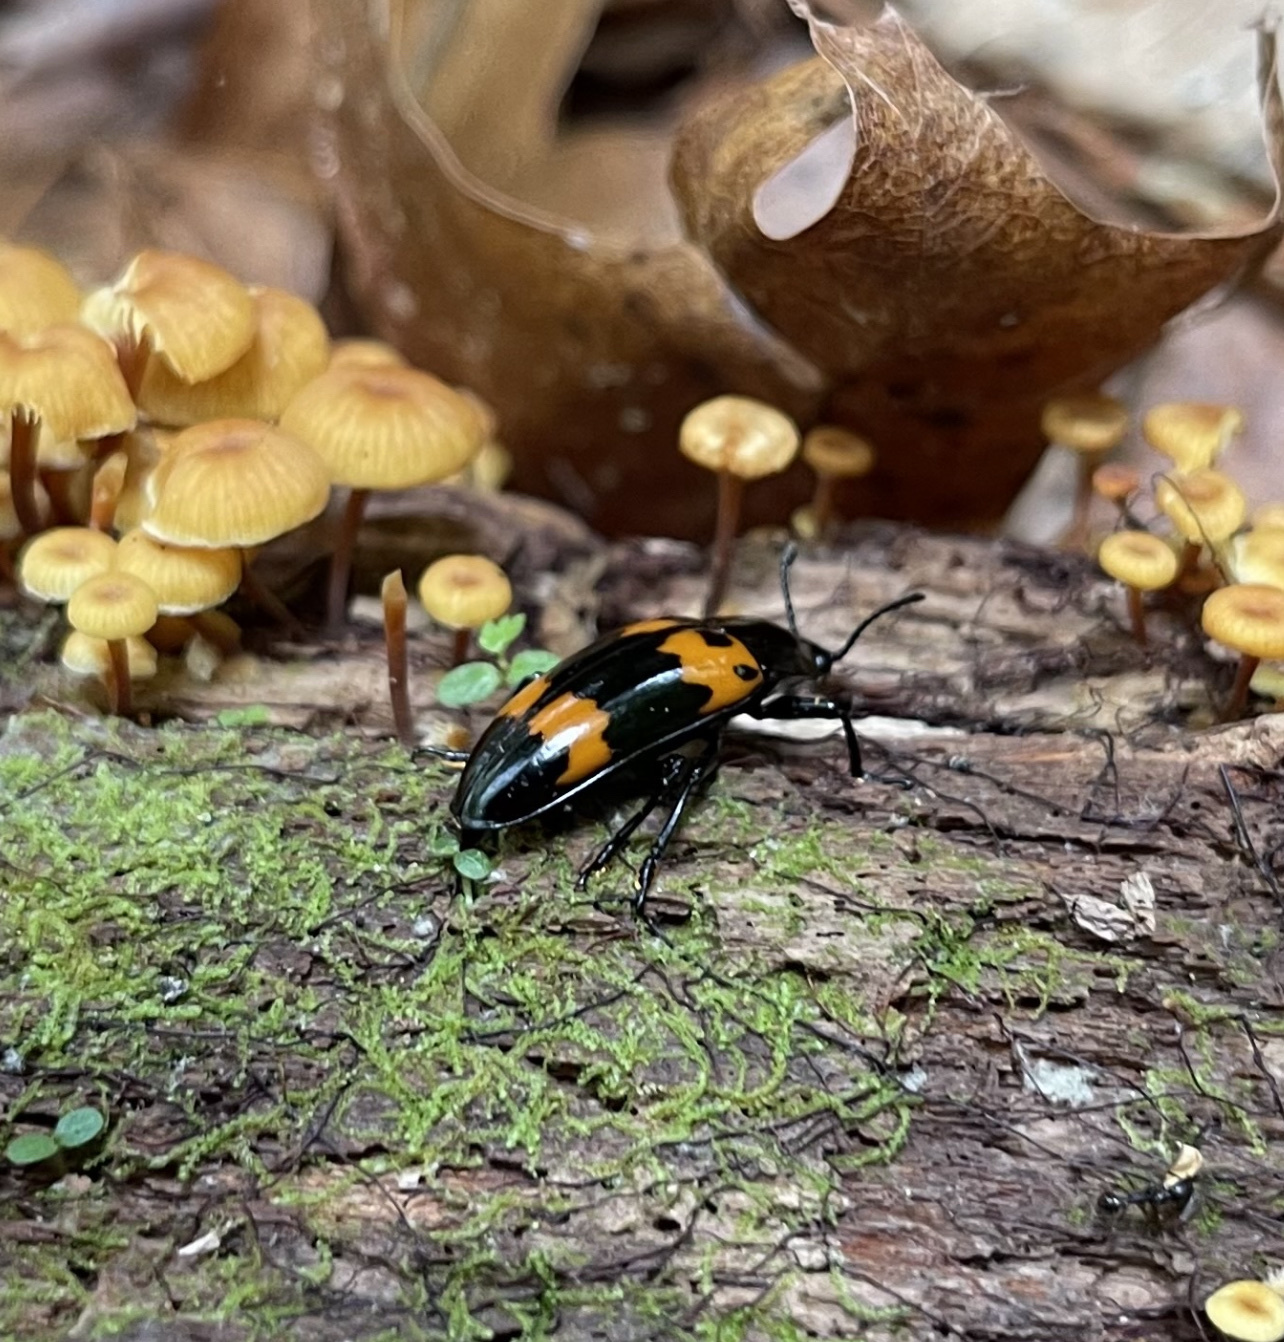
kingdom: Animalia
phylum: Arthropoda
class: Insecta
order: Coleoptera
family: Erotylidae
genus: Megalodacne
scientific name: Megalodacne heros
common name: Pleasing fungus beetle
